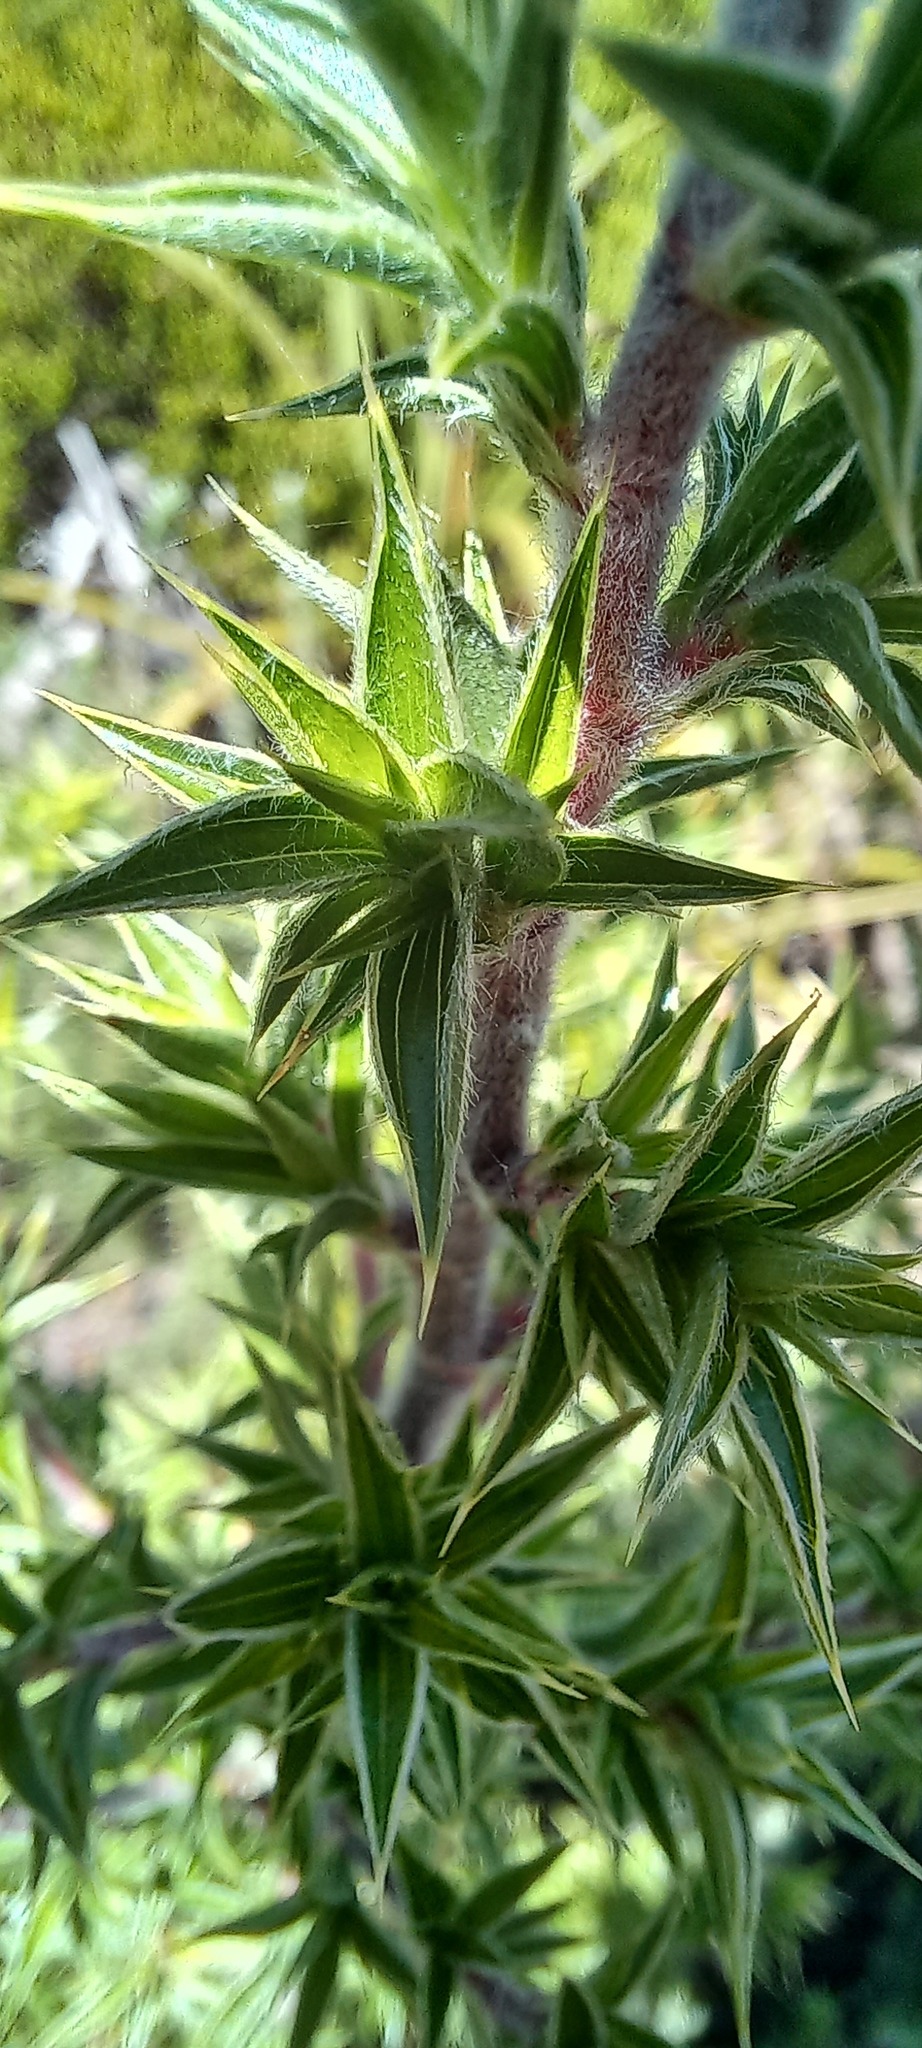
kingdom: Plantae
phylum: Tracheophyta
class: Magnoliopsida
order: Rosales
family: Rosaceae
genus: Cliffortia
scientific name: Cliffortia ruscifolia
